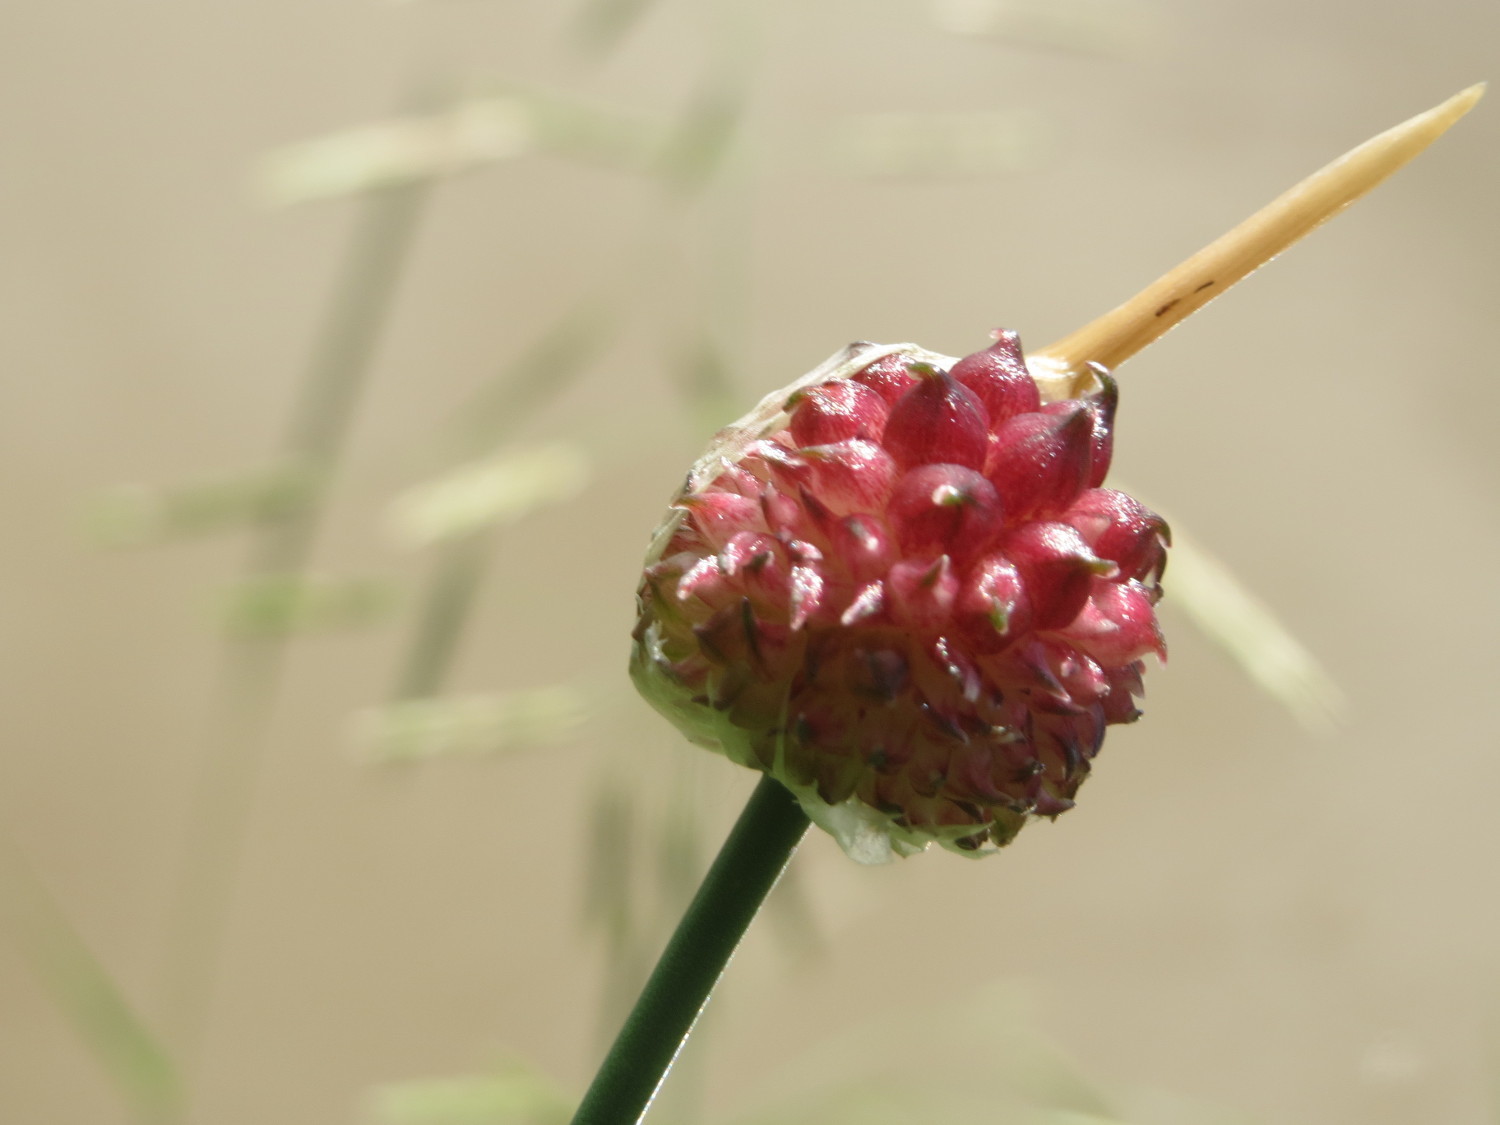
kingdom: Plantae
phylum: Tracheophyta
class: Liliopsida
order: Asparagales
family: Amaryllidaceae
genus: Allium
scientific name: Allium vineale
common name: Crow garlic
